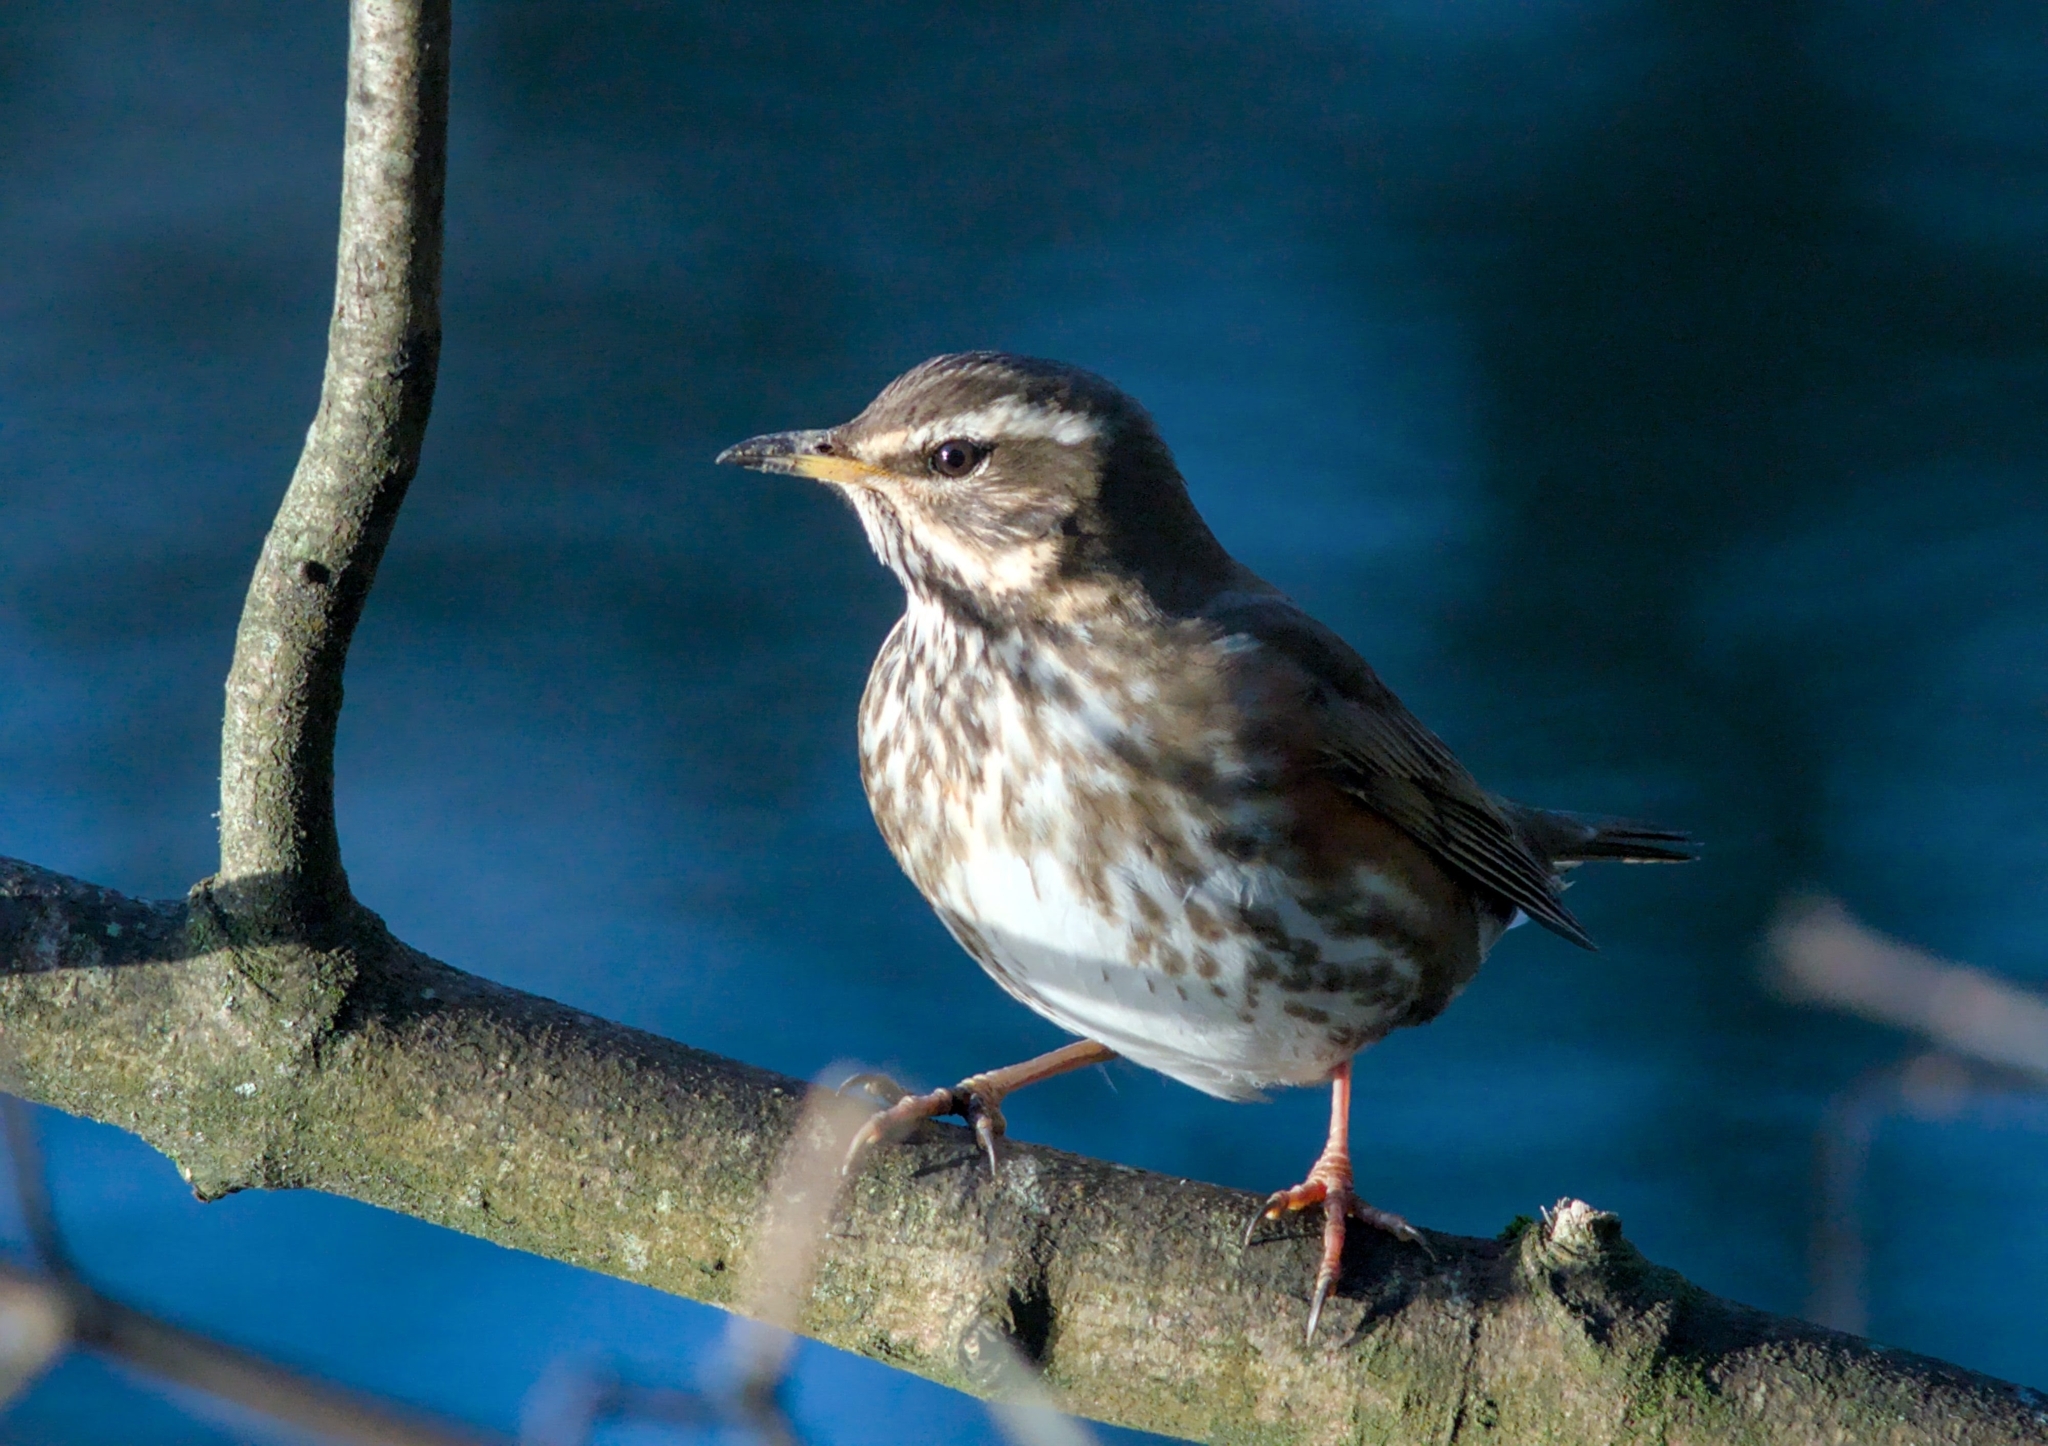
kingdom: Animalia
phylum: Chordata
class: Aves
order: Passeriformes
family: Turdidae
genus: Turdus
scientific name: Turdus iliacus
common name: Redwing
